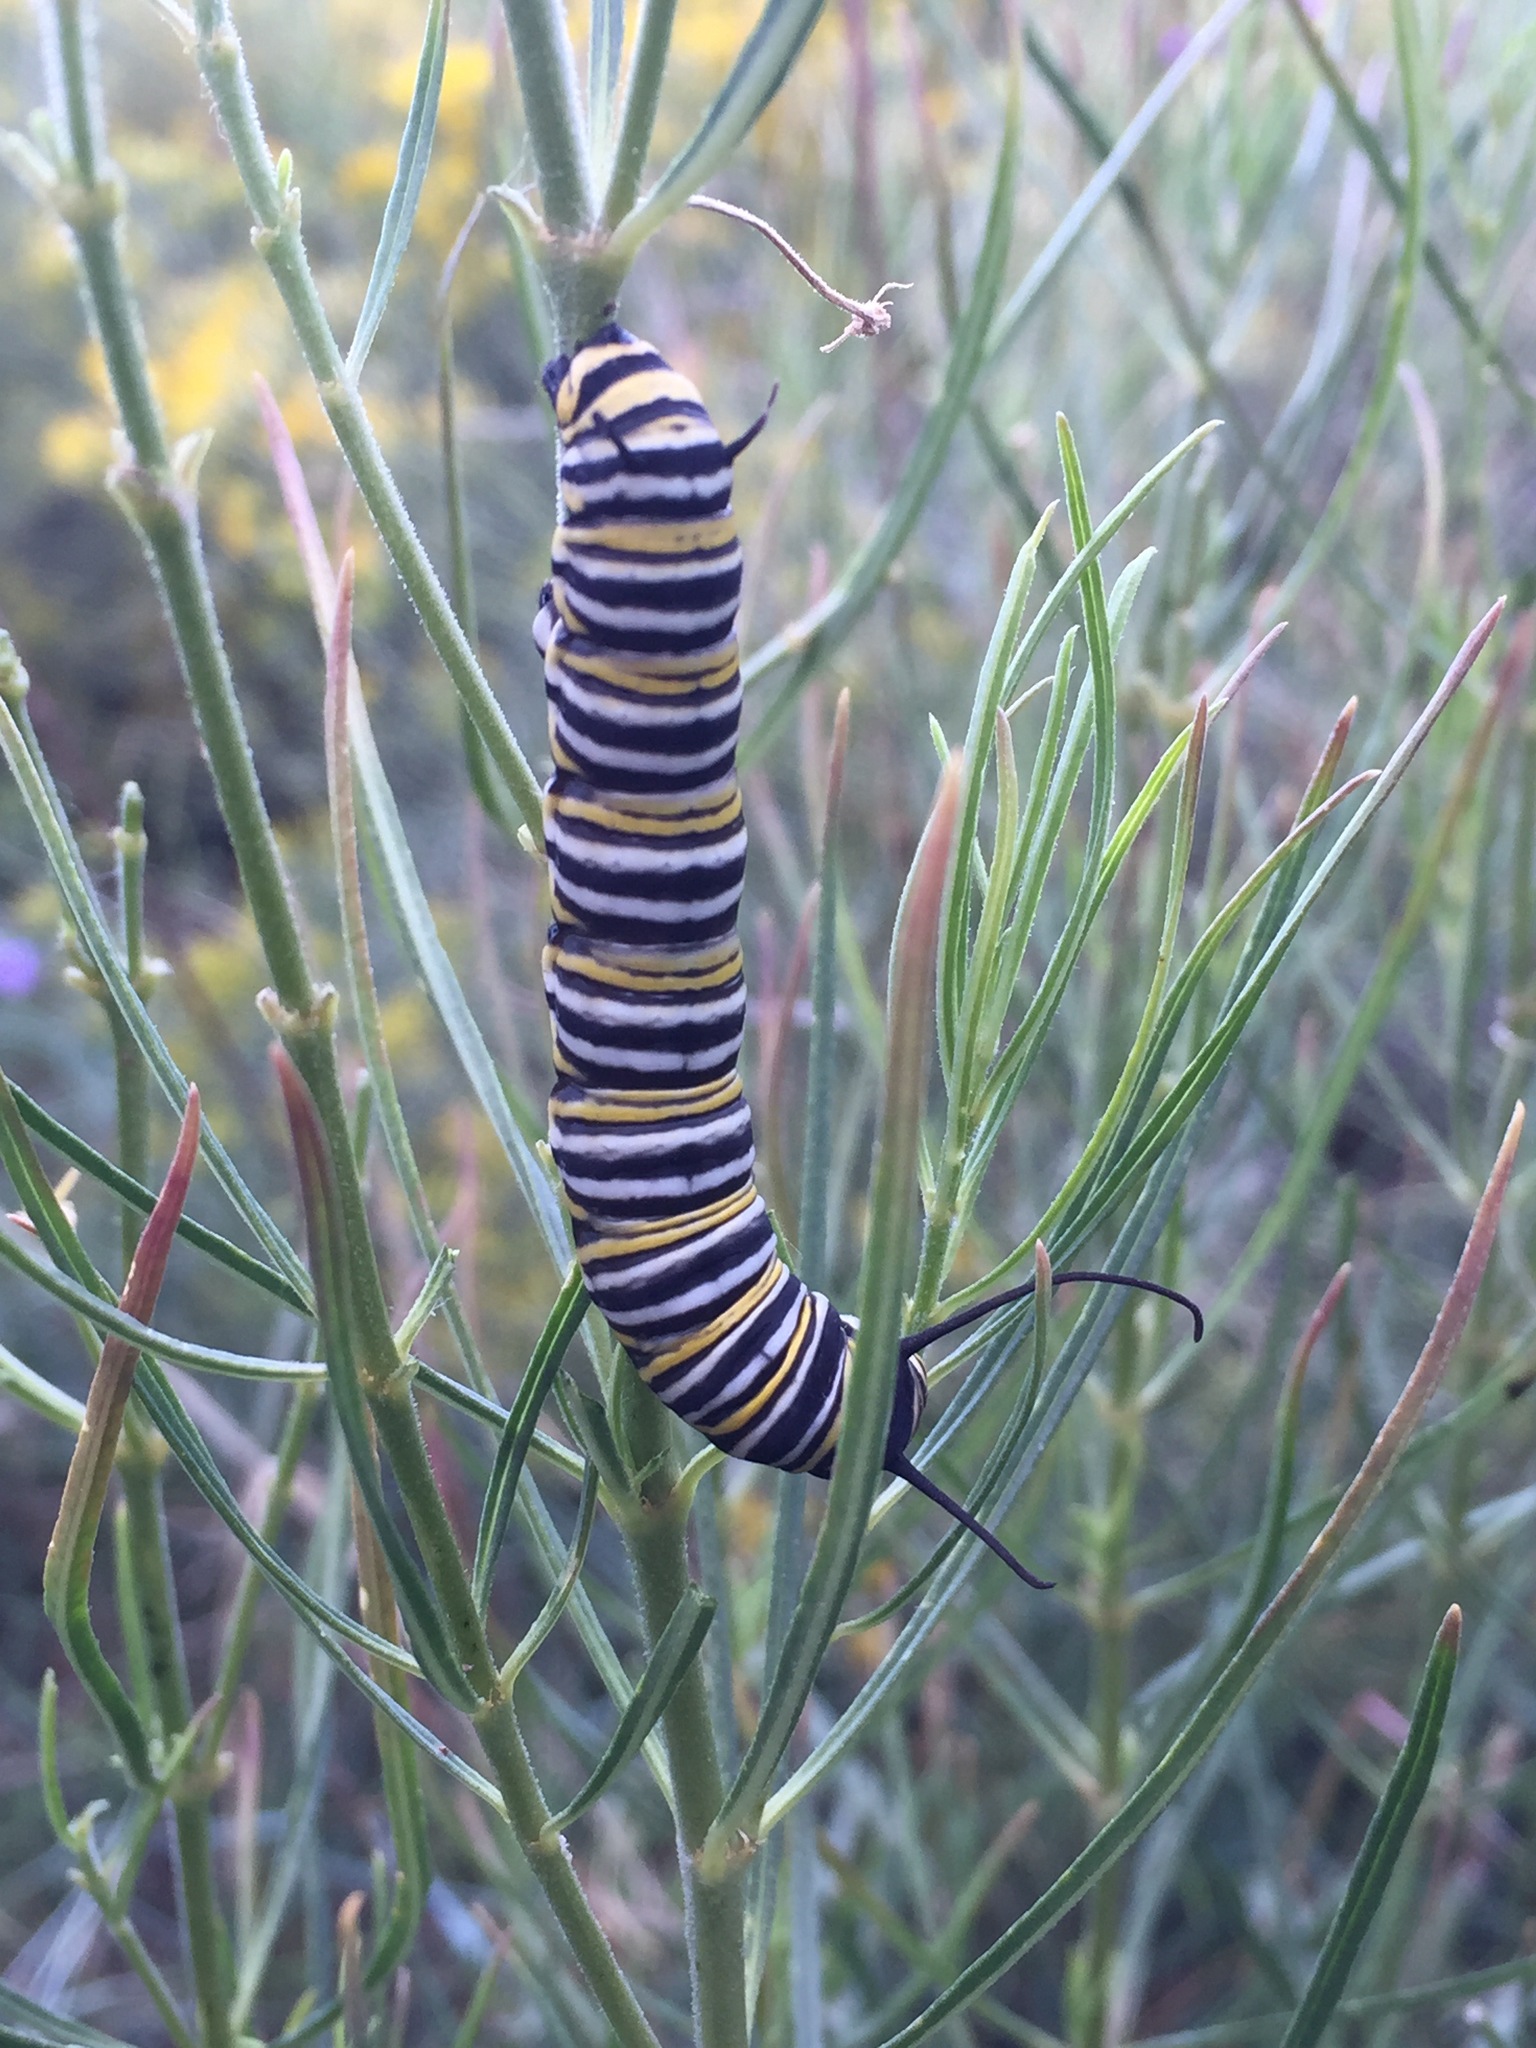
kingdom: Animalia
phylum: Arthropoda
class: Insecta
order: Lepidoptera
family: Nymphalidae
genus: Danaus
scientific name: Danaus plexippus
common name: Monarch
